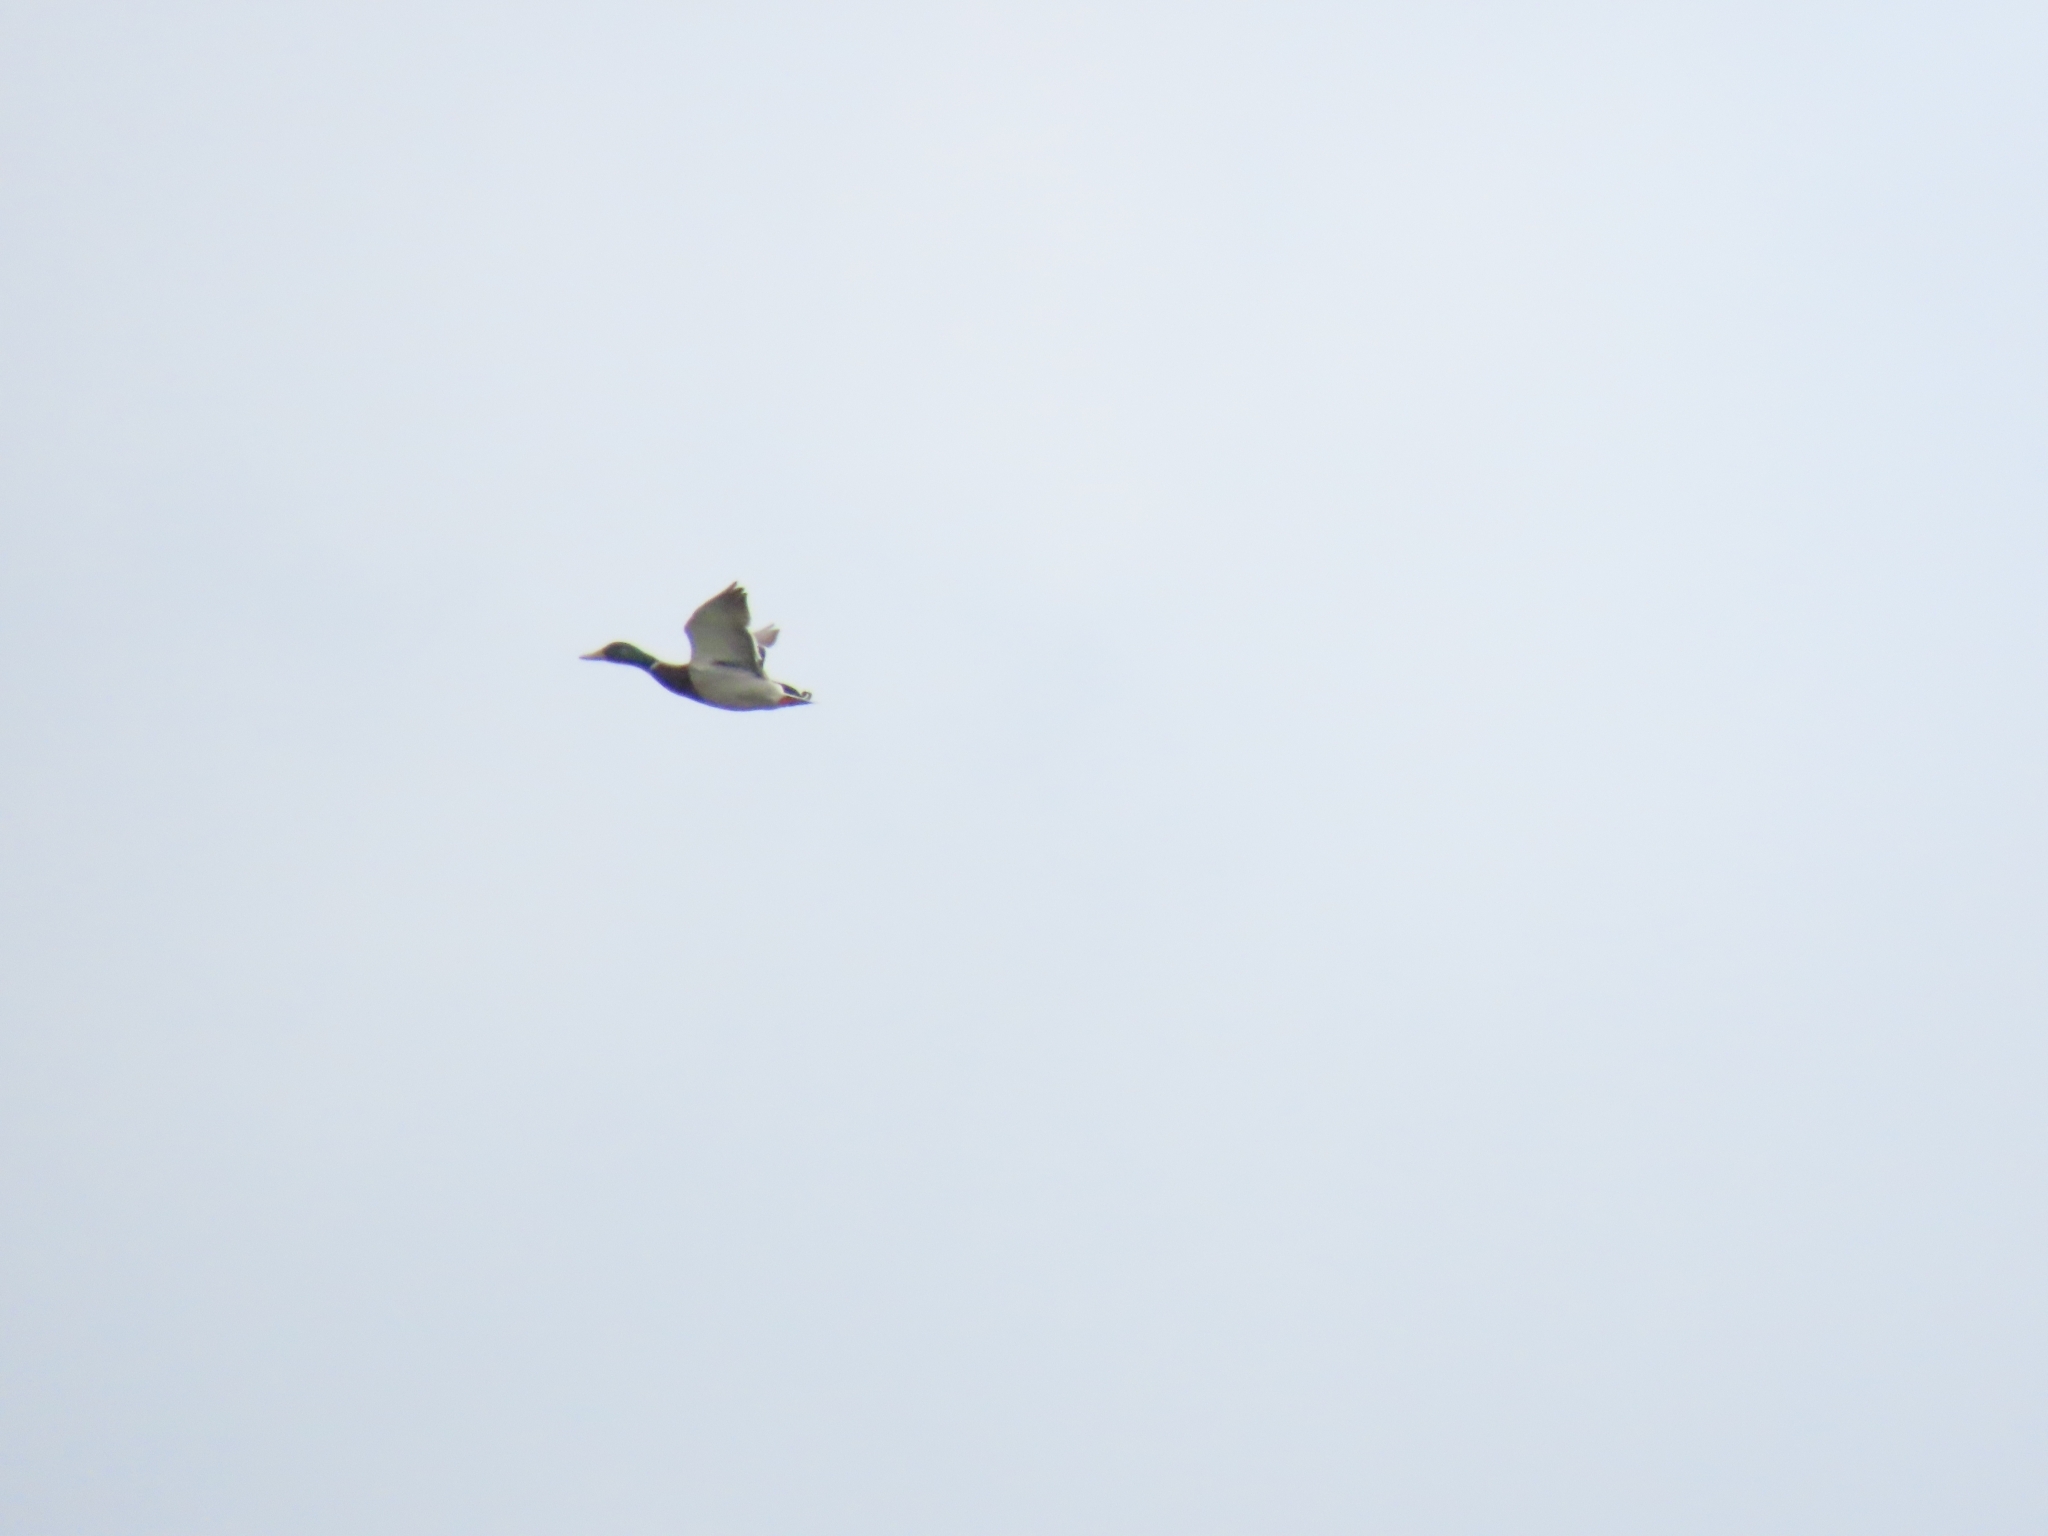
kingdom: Animalia
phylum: Chordata
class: Aves
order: Anseriformes
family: Anatidae
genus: Anas
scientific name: Anas platyrhynchos
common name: Mallard
